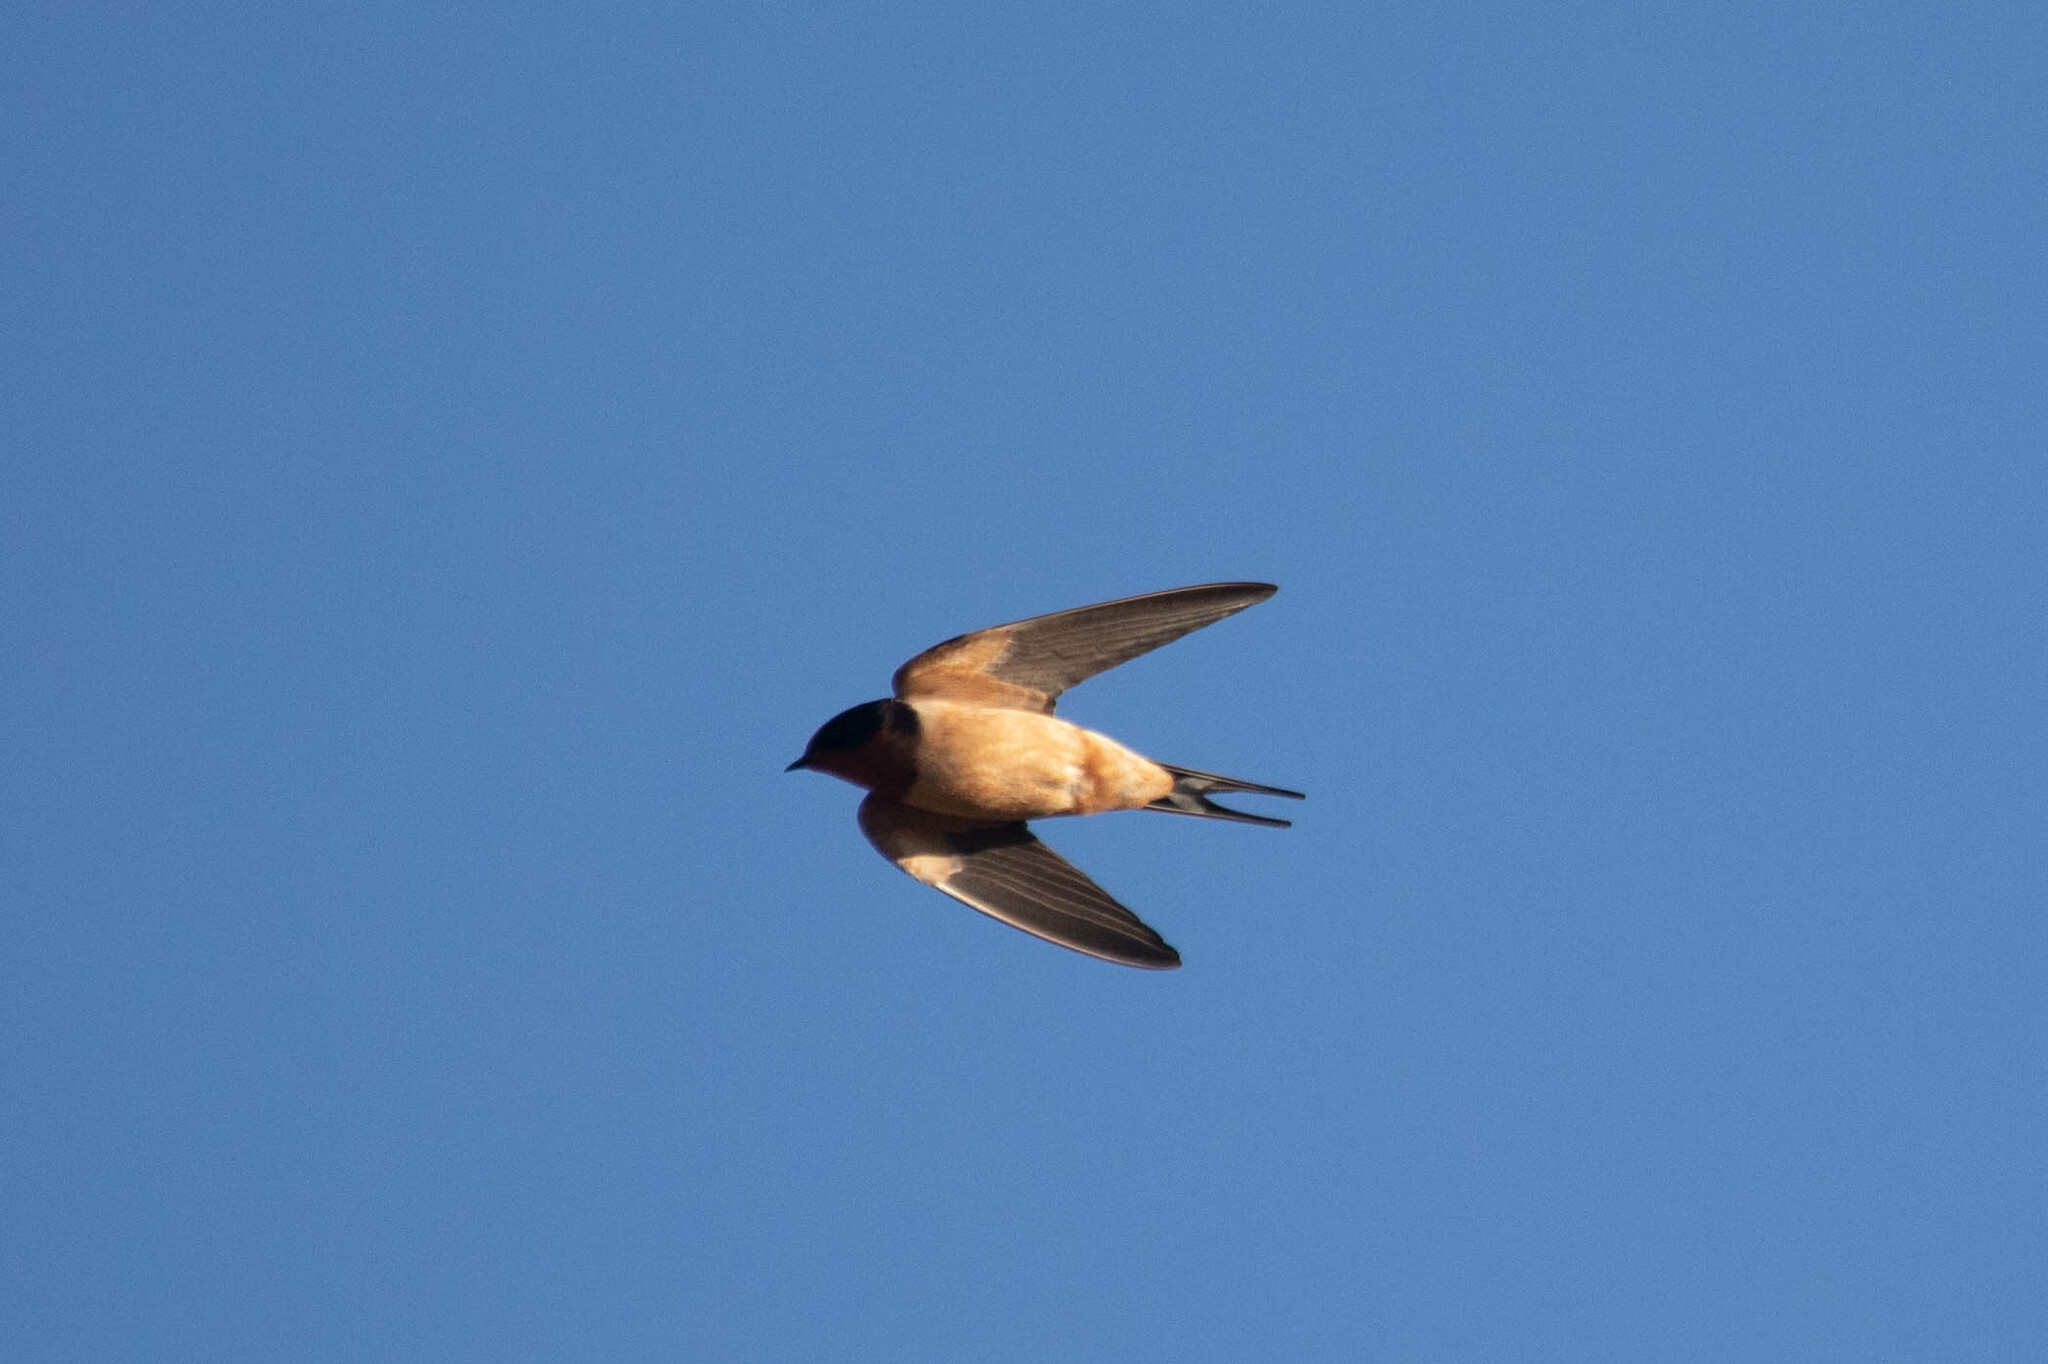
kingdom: Animalia
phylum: Chordata
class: Aves
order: Passeriformes
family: Hirundinidae
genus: Hirundo
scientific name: Hirundo rustica
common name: Barn swallow
